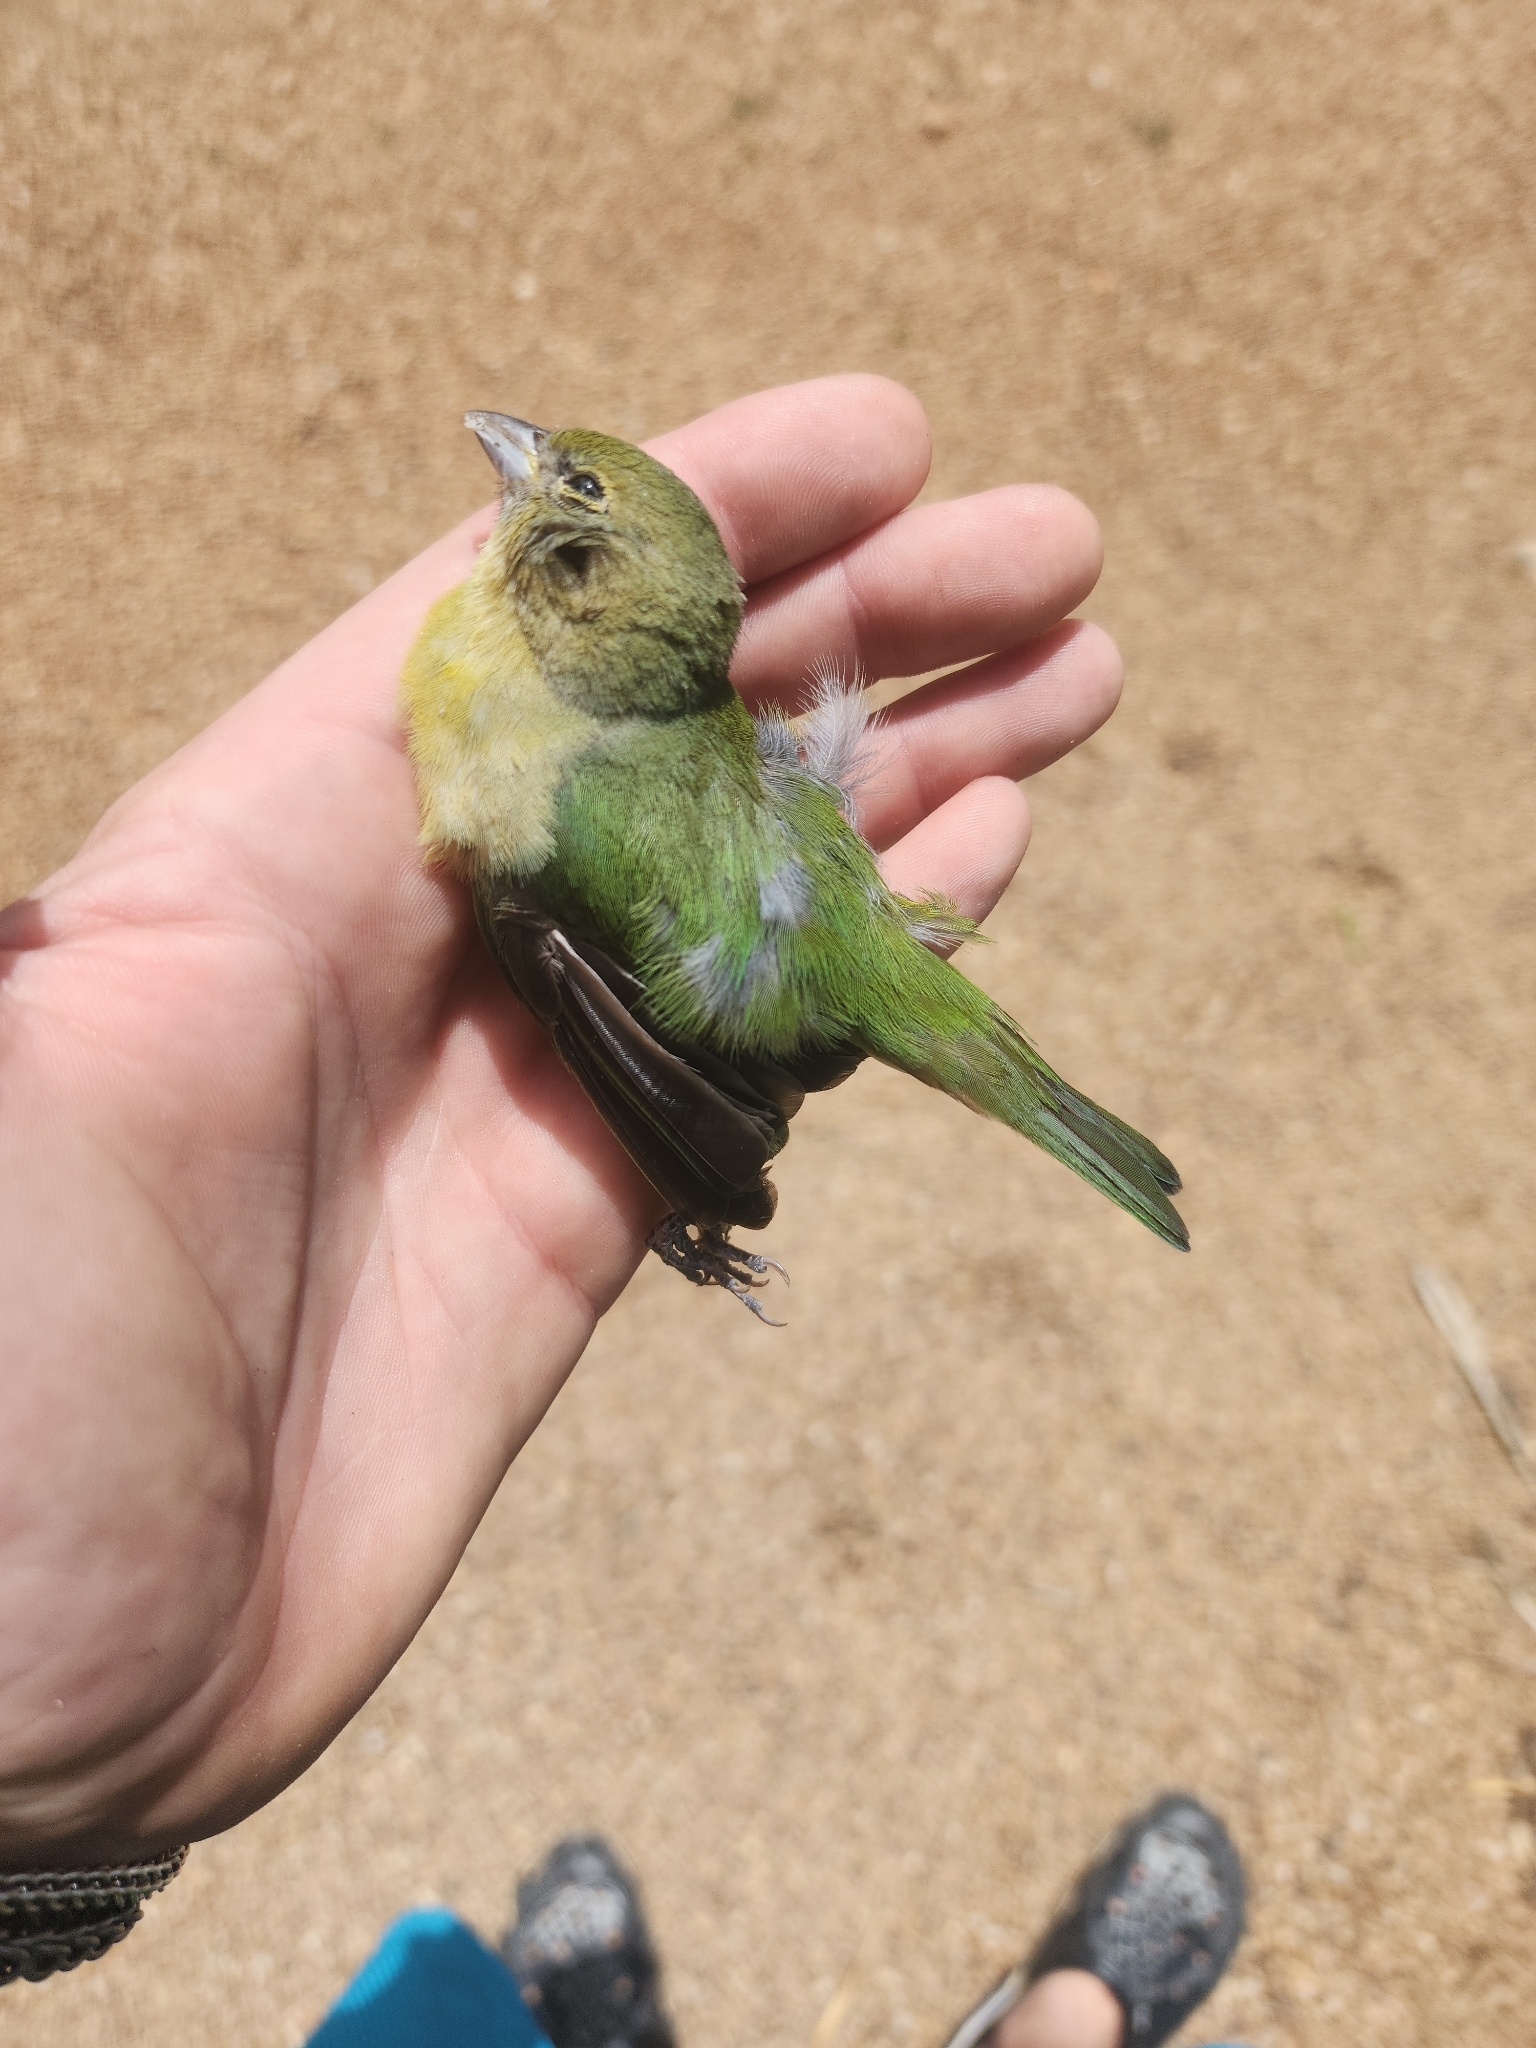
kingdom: Animalia
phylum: Chordata
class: Aves
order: Passeriformes
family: Cardinalidae
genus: Passerina
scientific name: Passerina ciris
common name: Painted bunting
